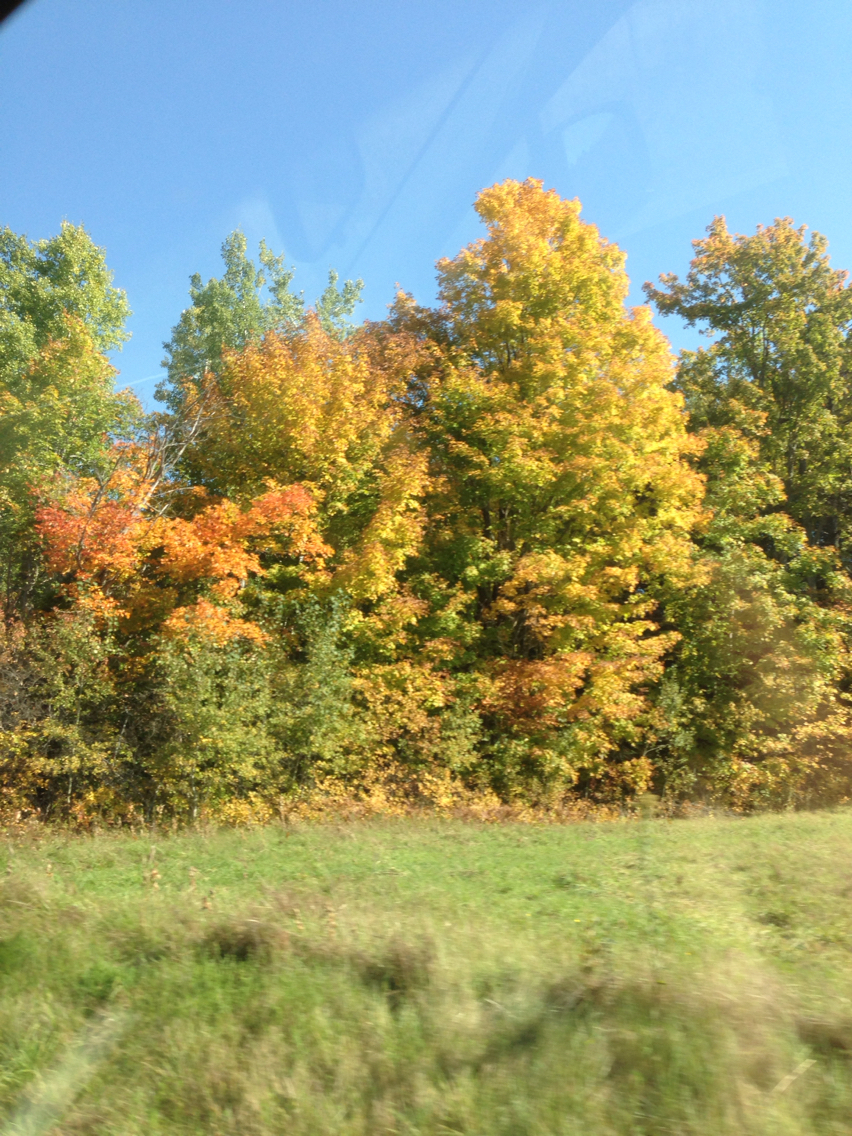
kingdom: Plantae
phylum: Tracheophyta
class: Magnoliopsida
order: Sapindales
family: Sapindaceae
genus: Acer
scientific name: Acer saccharum
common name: Sugar maple
